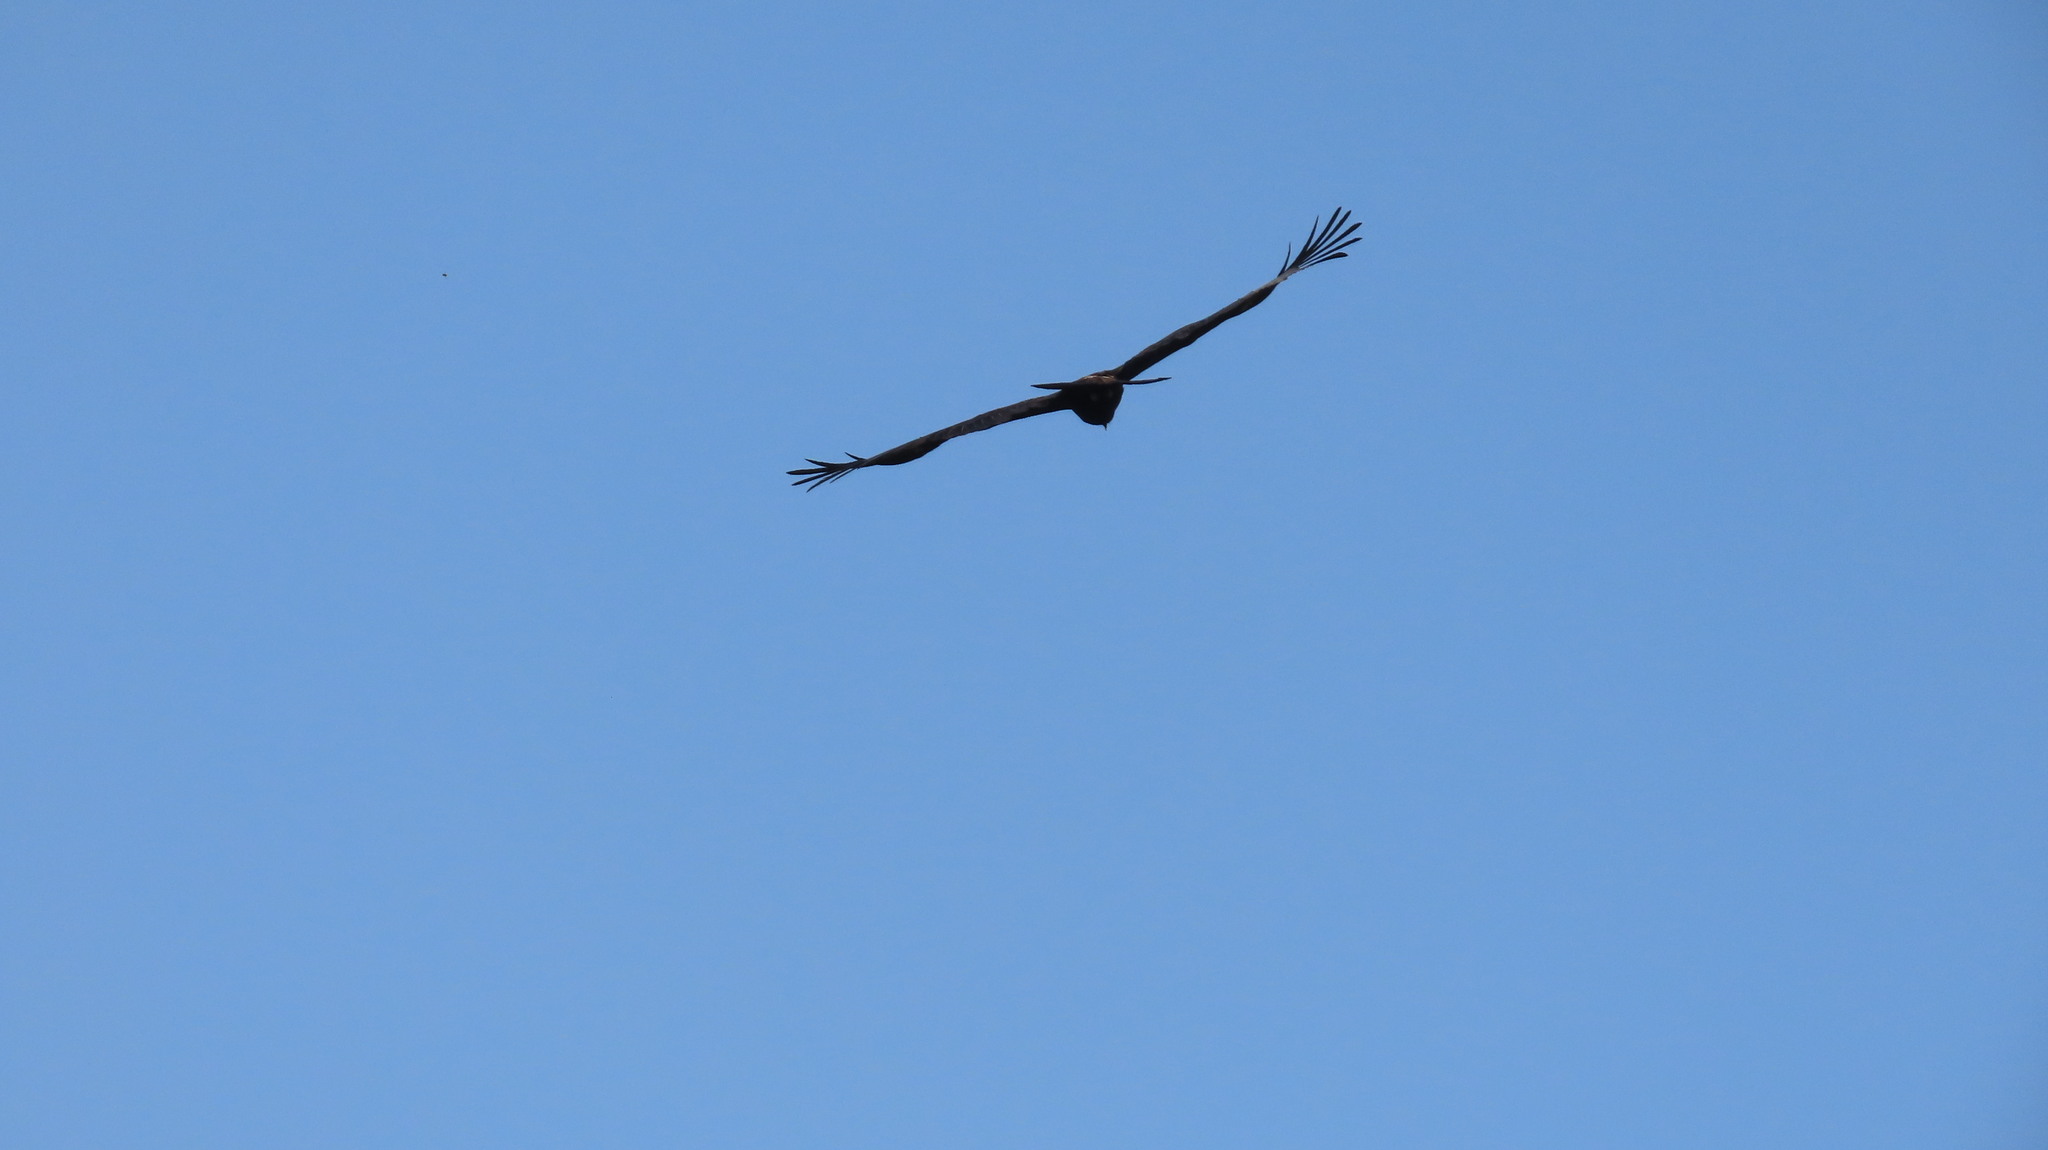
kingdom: Animalia
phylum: Chordata
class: Aves
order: Accipitriformes
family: Accipitridae
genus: Ictinaetus
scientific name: Ictinaetus malayensis
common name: Black eagle
